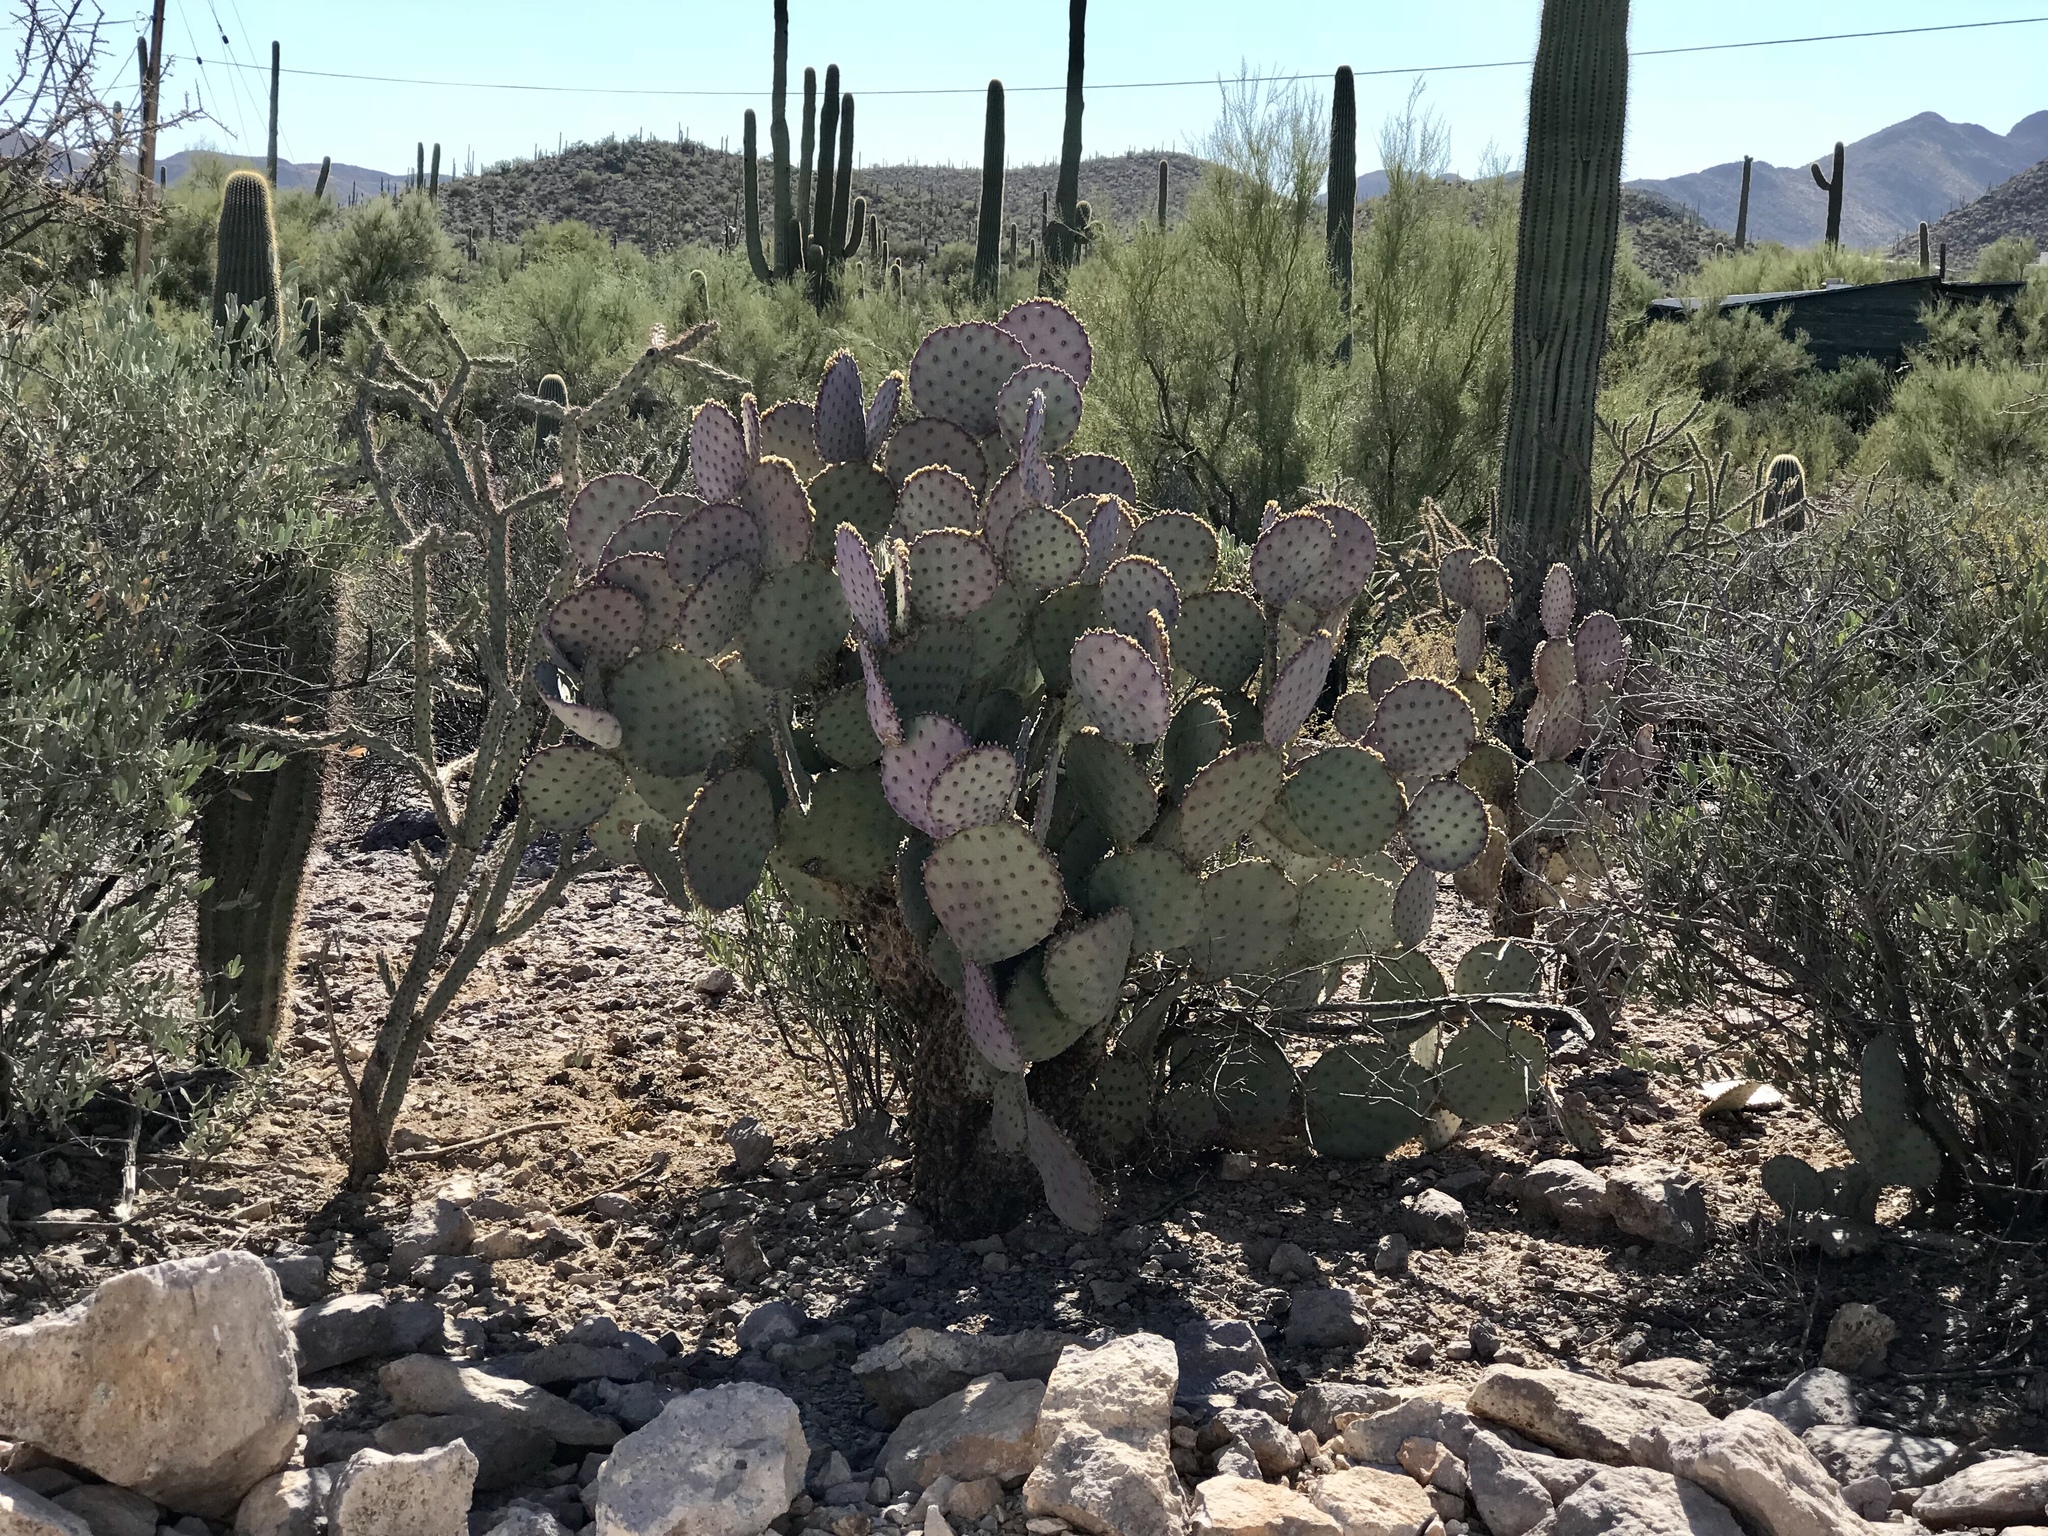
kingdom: Plantae
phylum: Tracheophyta
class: Magnoliopsida
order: Caryophyllales
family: Cactaceae
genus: Opuntia
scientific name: Opuntia gosseliniana
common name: Violet prickly-pear
